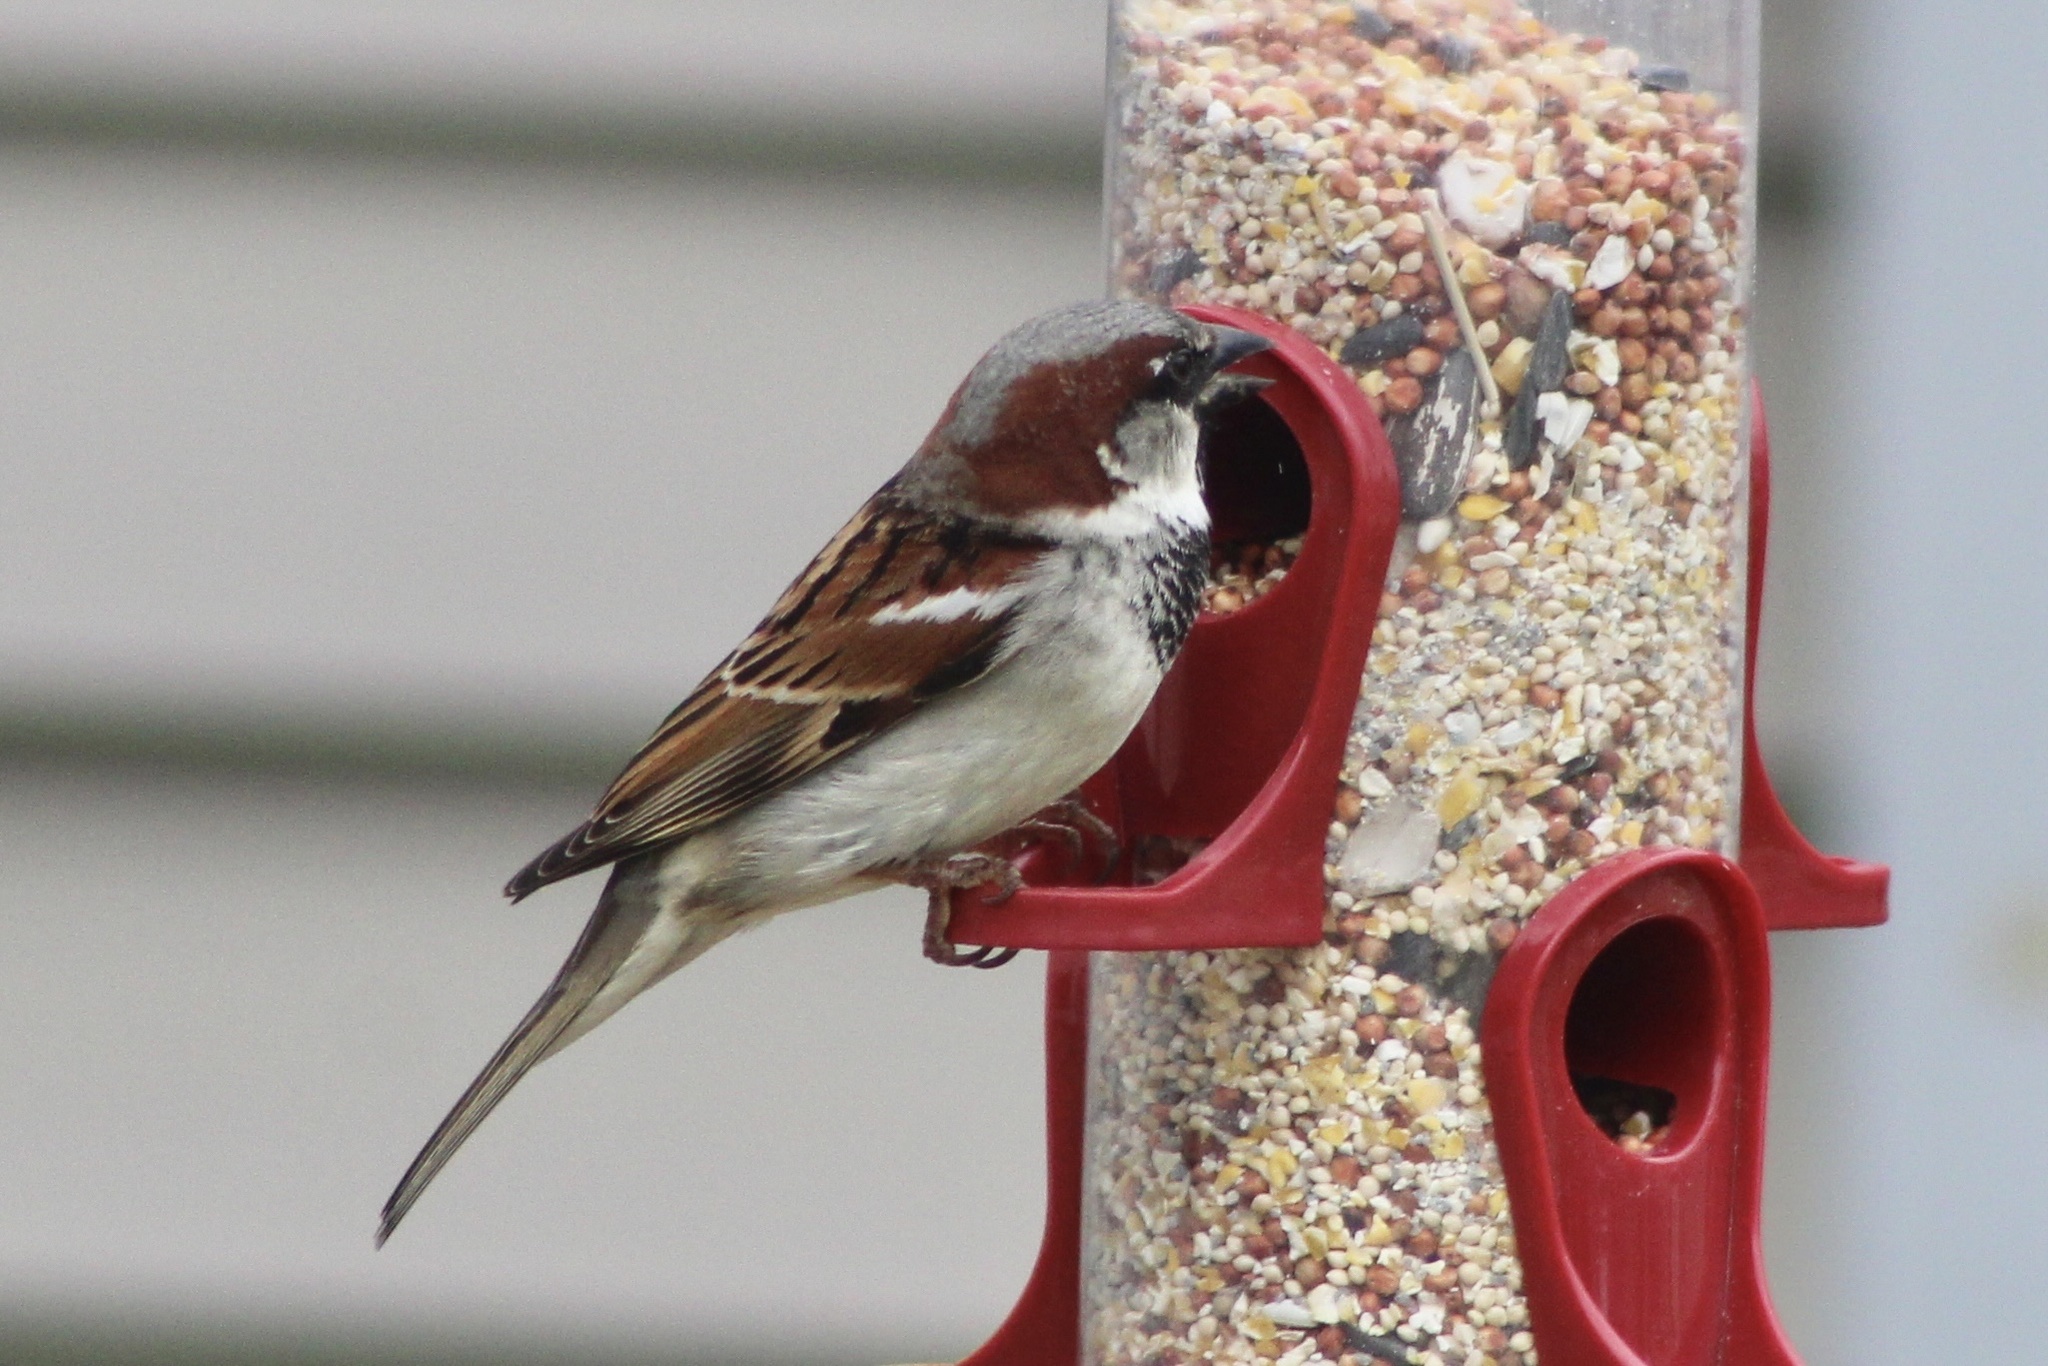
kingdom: Animalia
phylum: Chordata
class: Aves
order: Passeriformes
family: Passeridae
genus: Passer
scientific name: Passer domesticus
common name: House sparrow
